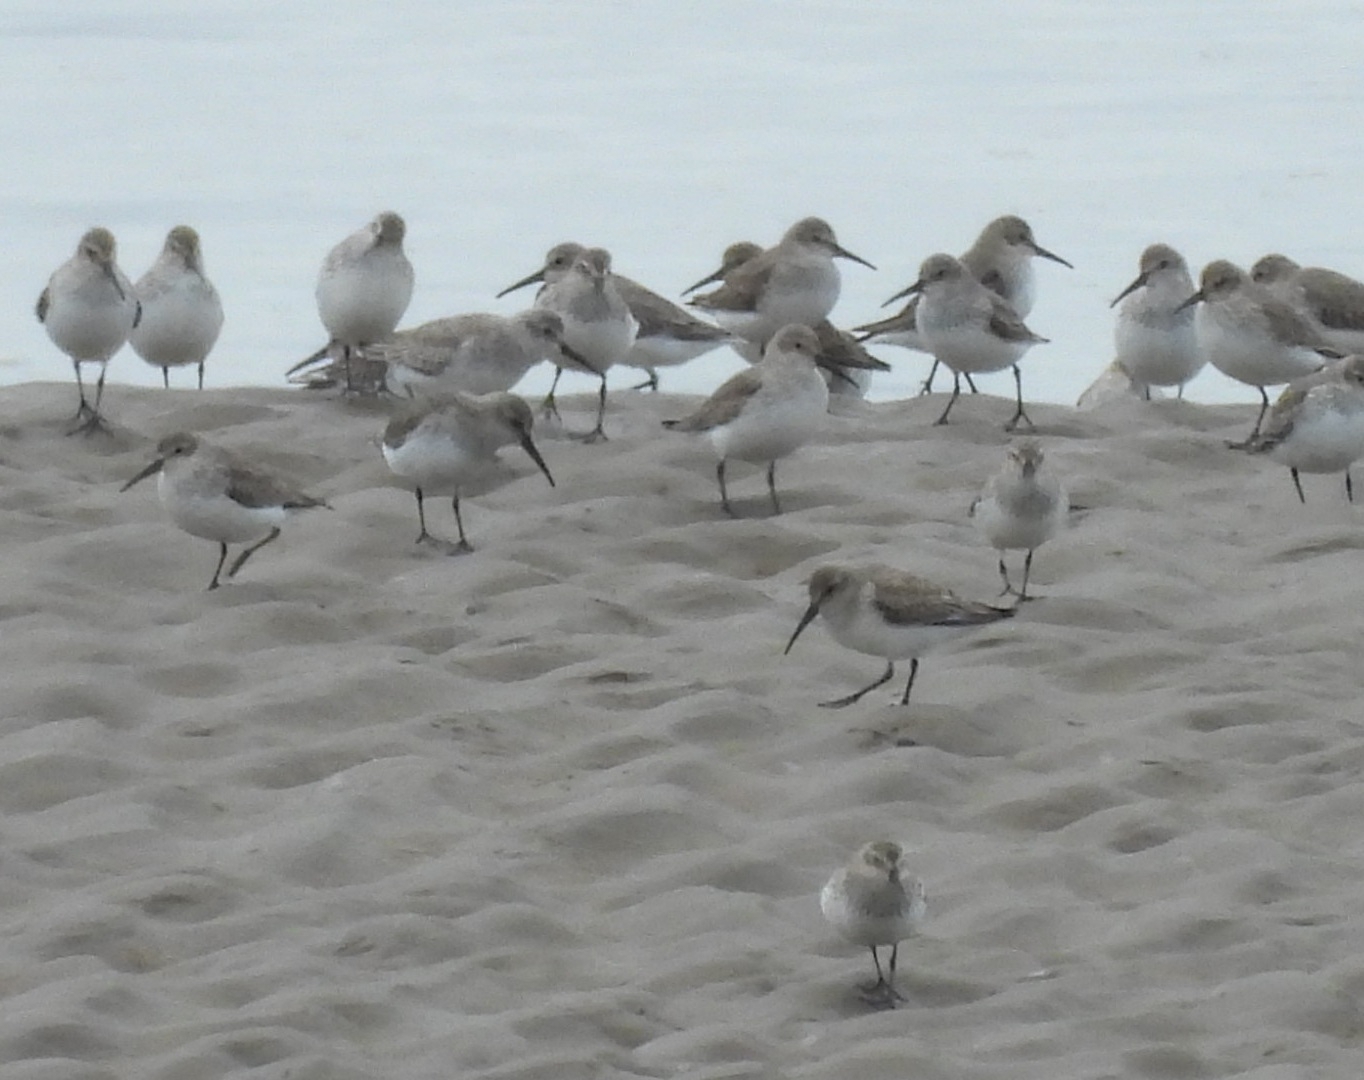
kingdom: Animalia
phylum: Chordata
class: Aves
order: Charadriiformes
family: Scolopacidae
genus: Calidris
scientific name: Calidris alpina
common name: Dunlin
